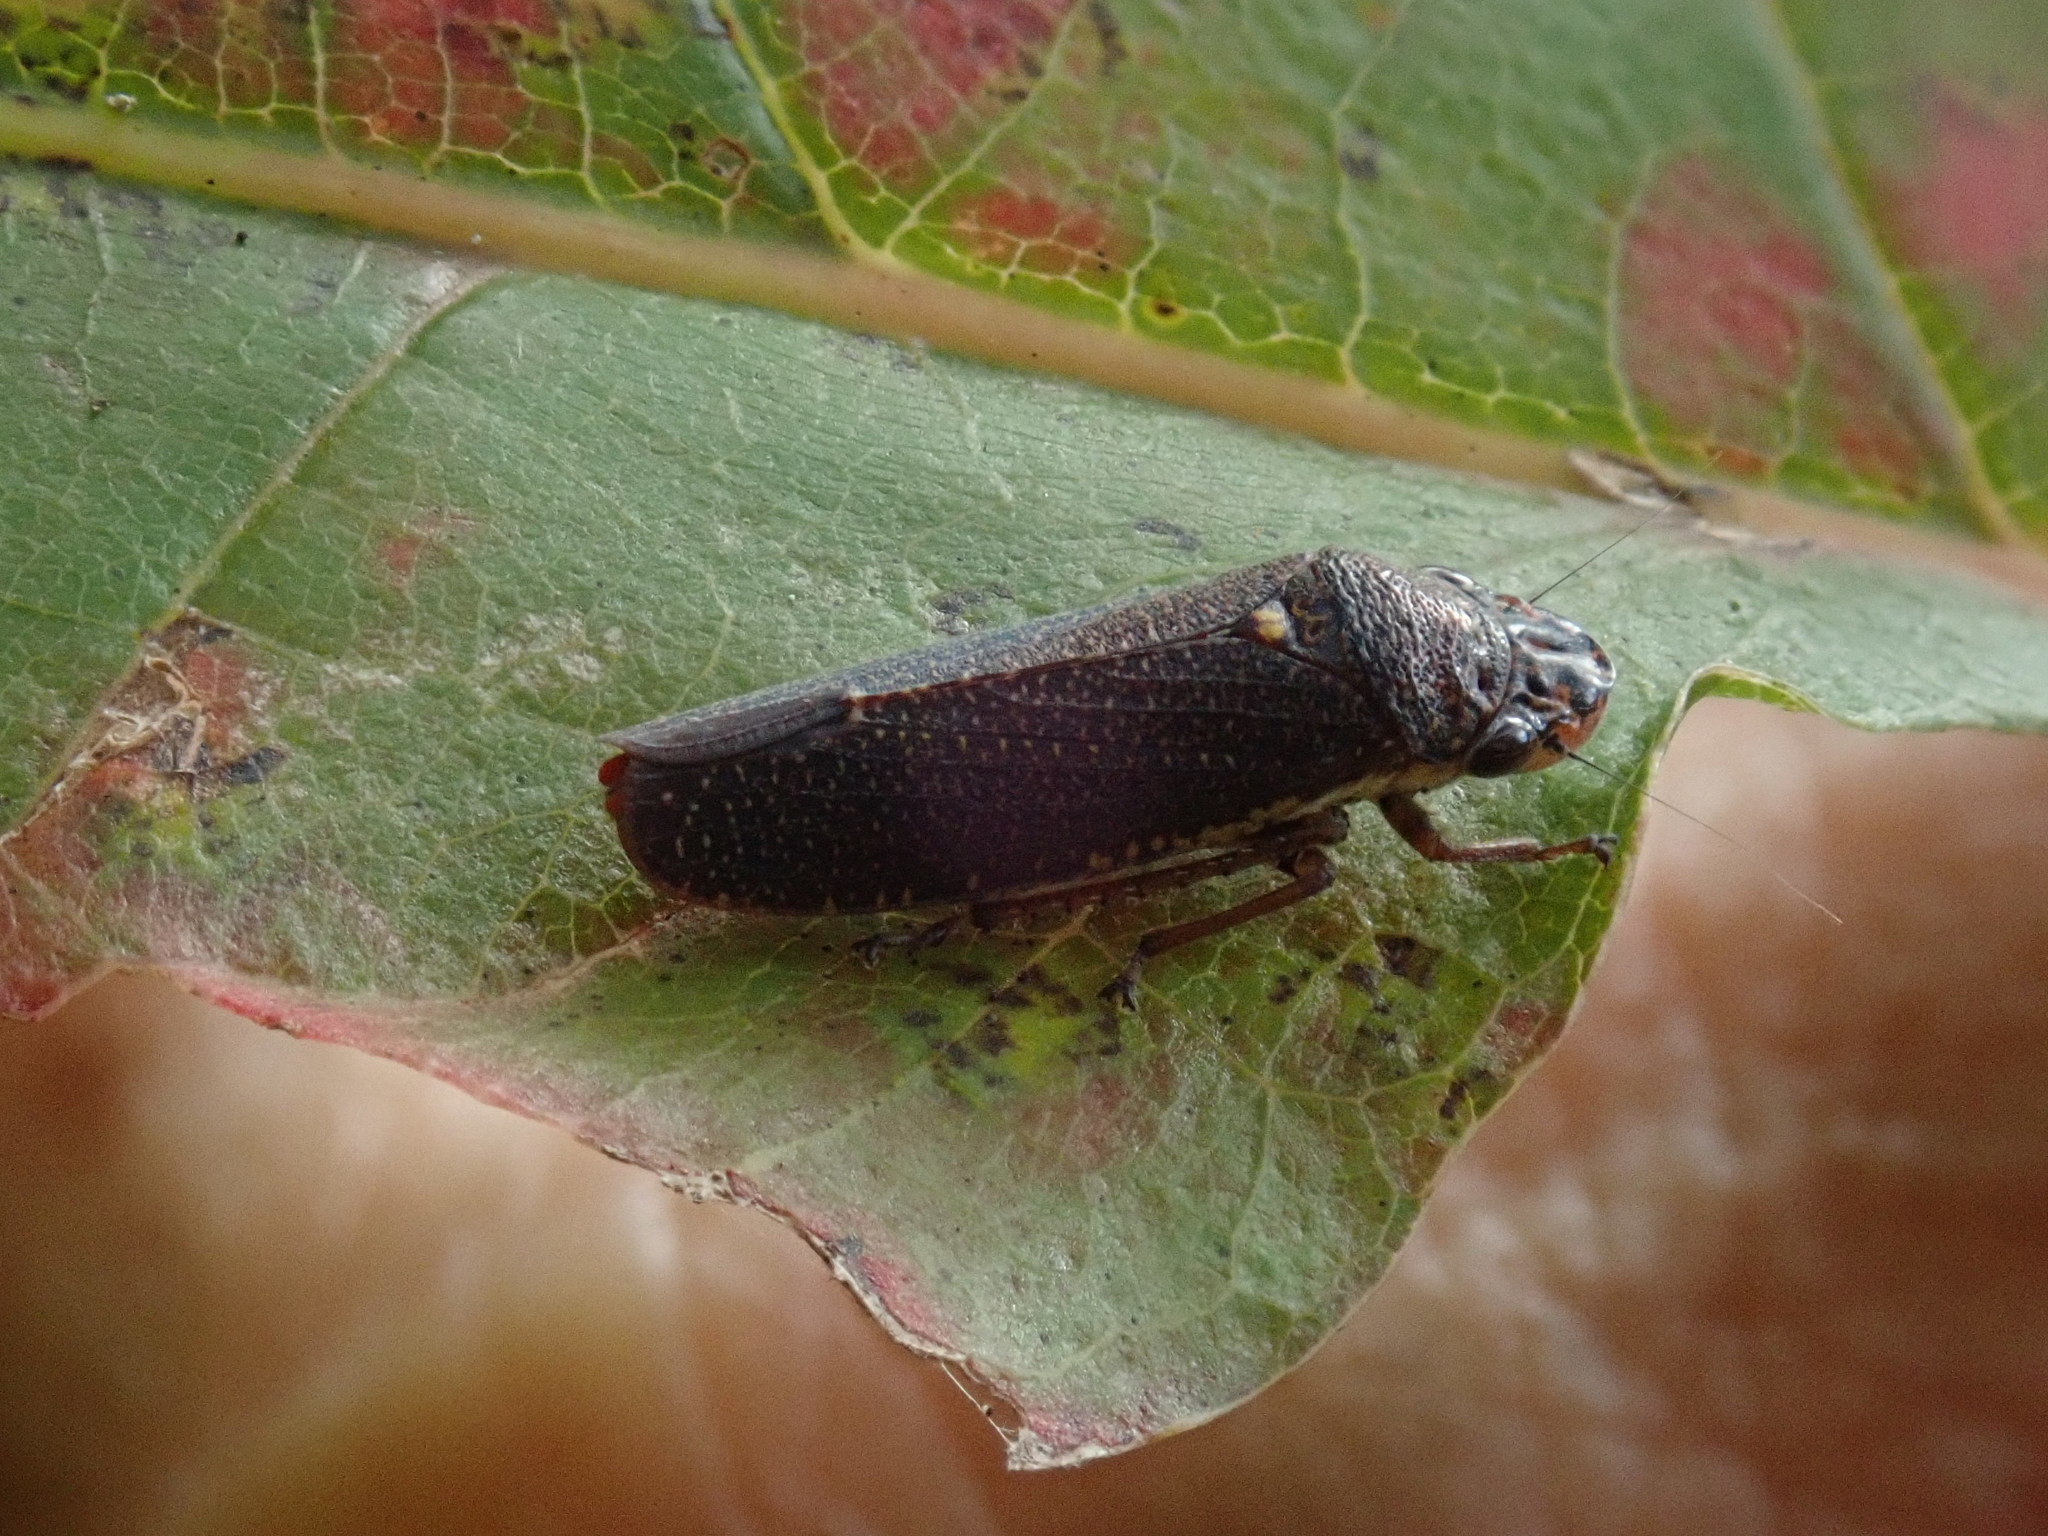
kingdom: Animalia
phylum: Arthropoda
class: Insecta
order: Hemiptera
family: Cicadellidae
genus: Paraulacizes
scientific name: Paraulacizes irrorata
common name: Speckled sharpshooter
